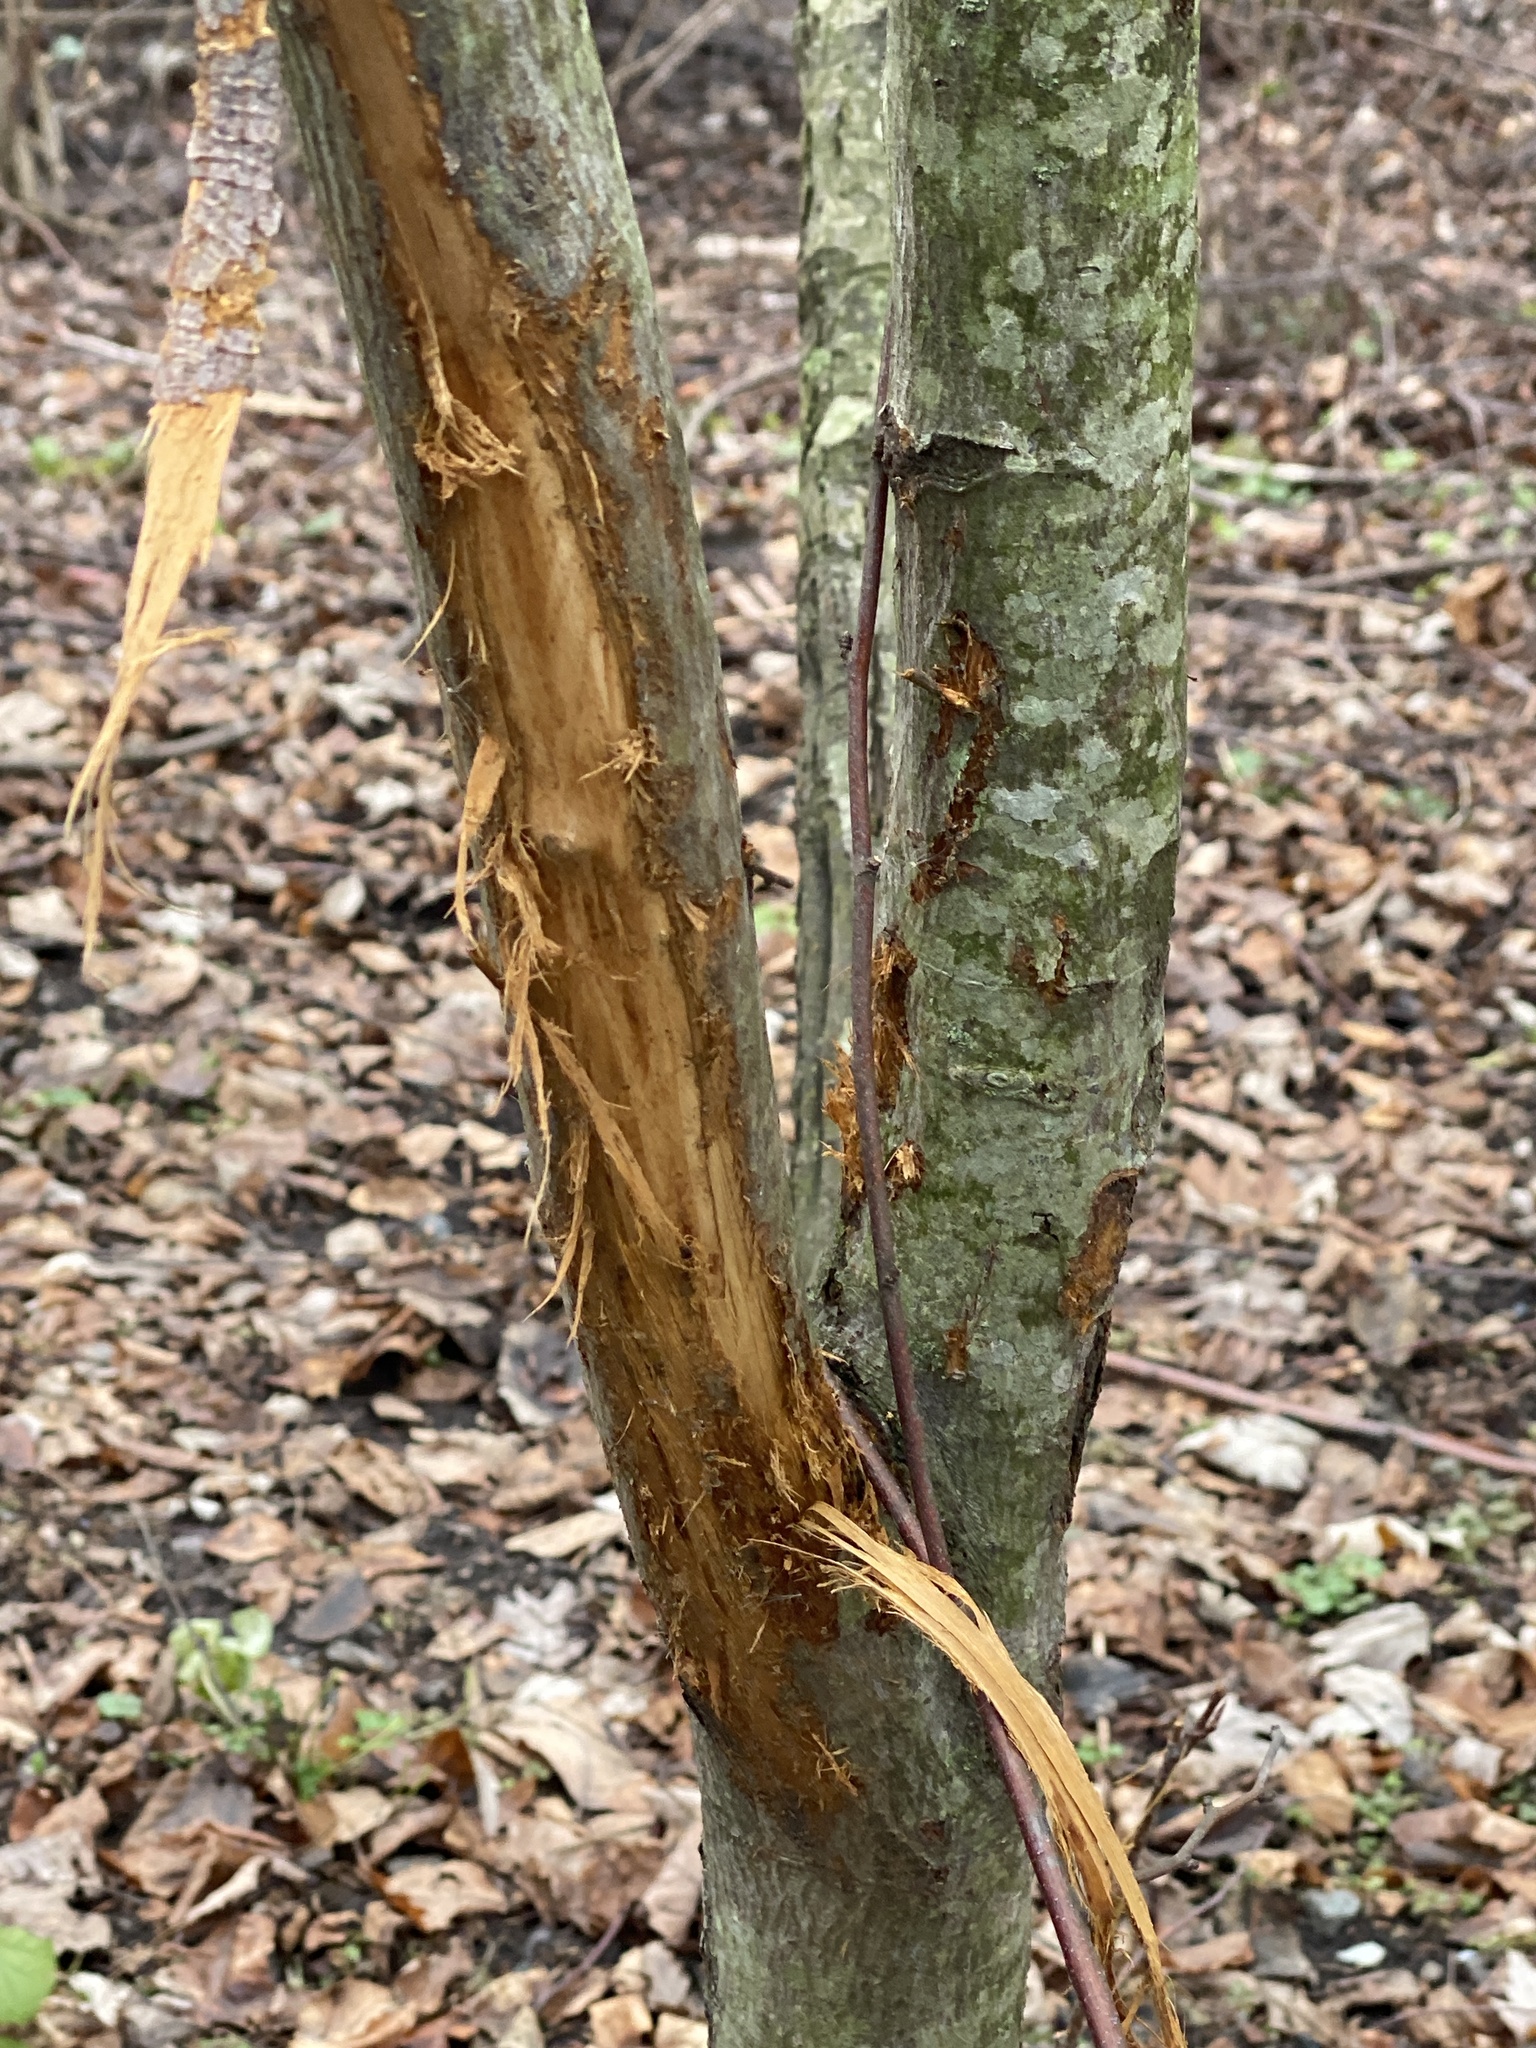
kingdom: Animalia
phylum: Chordata
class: Mammalia
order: Artiodactyla
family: Cervidae
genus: Odocoileus
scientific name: Odocoileus virginianus
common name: White-tailed deer
